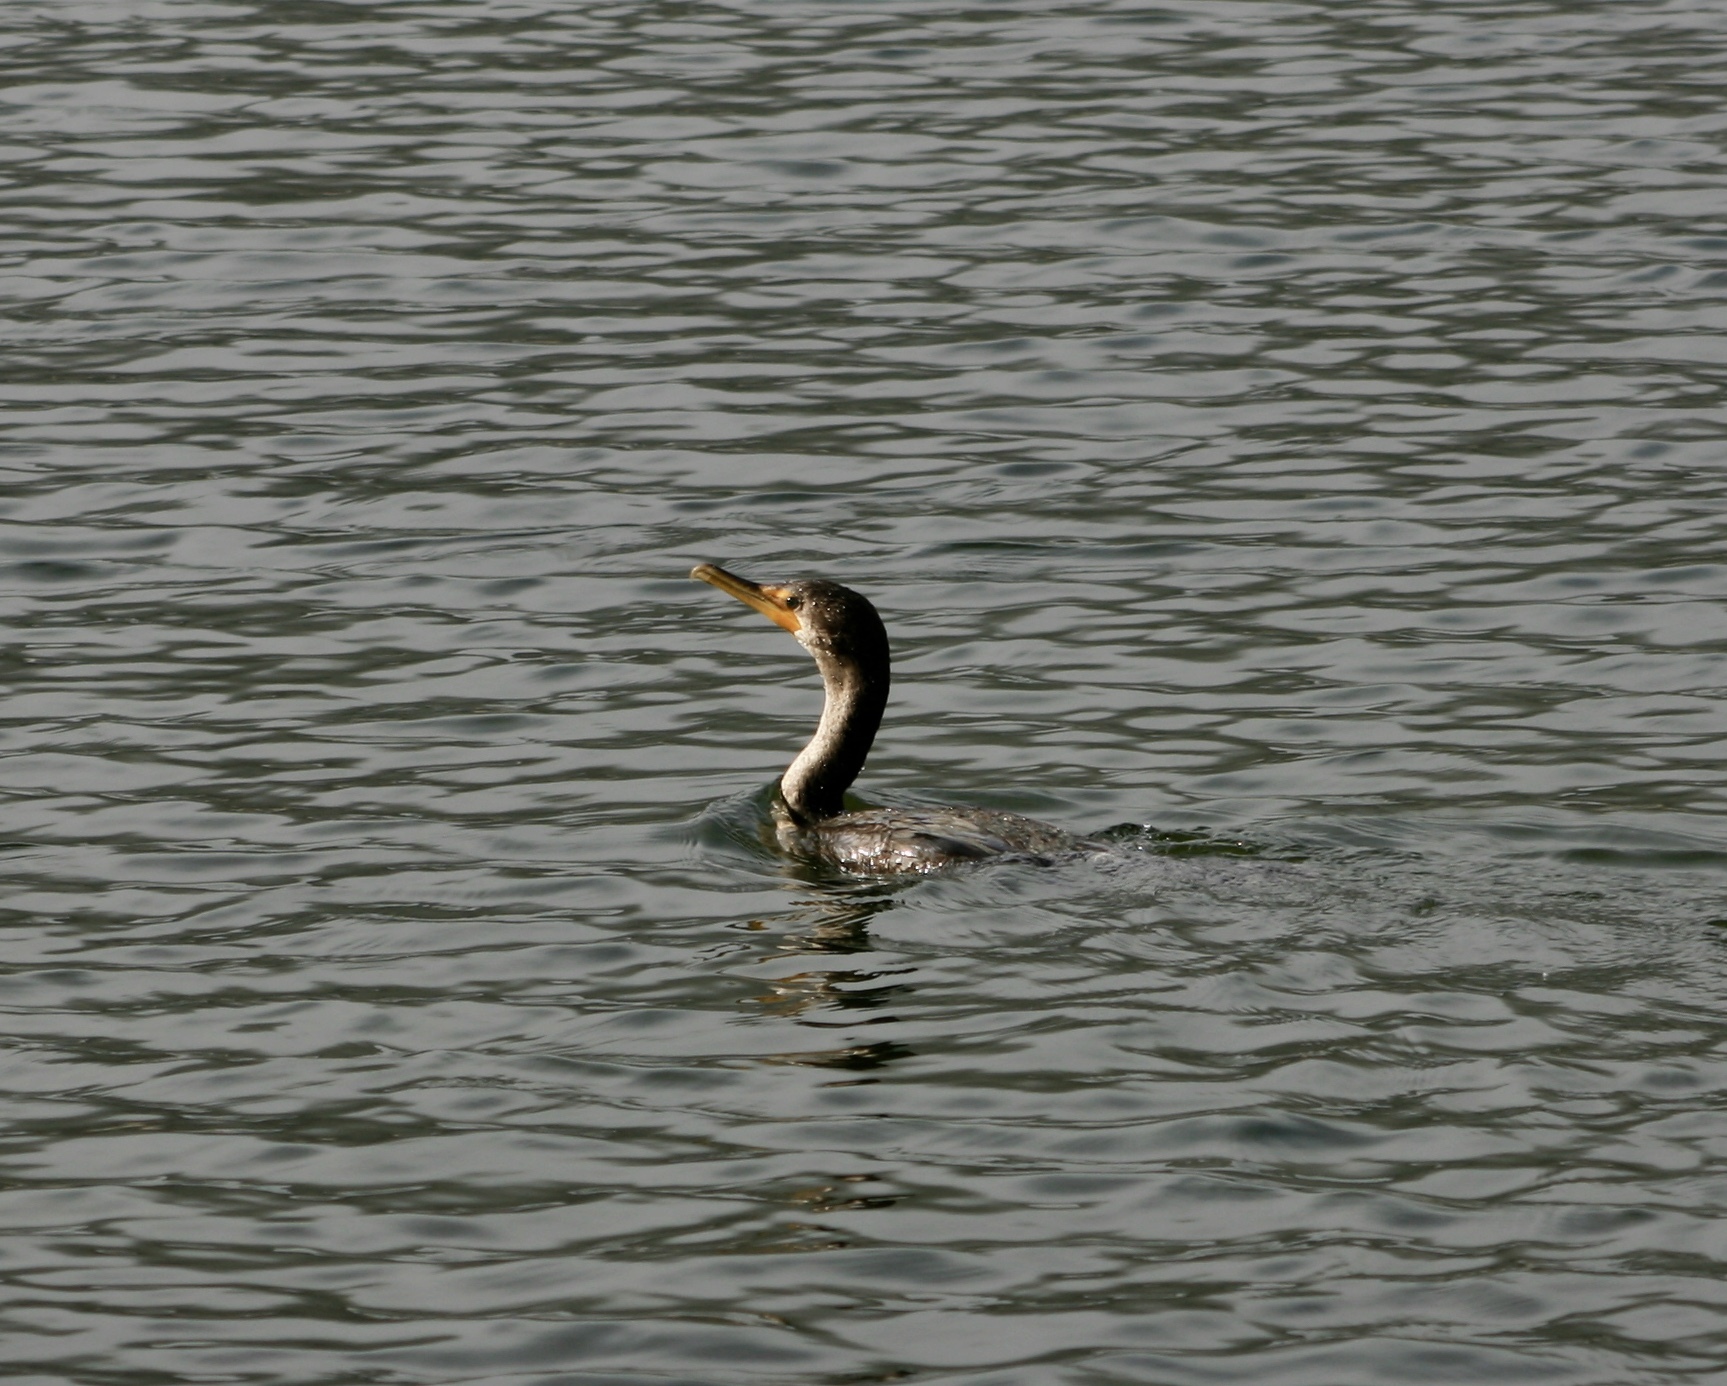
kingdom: Animalia
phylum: Chordata
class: Aves
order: Suliformes
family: Phalacrocoracidae
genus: Phalacrocorax
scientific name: Phalacrocorax auritus
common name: Double-crested cormorant
